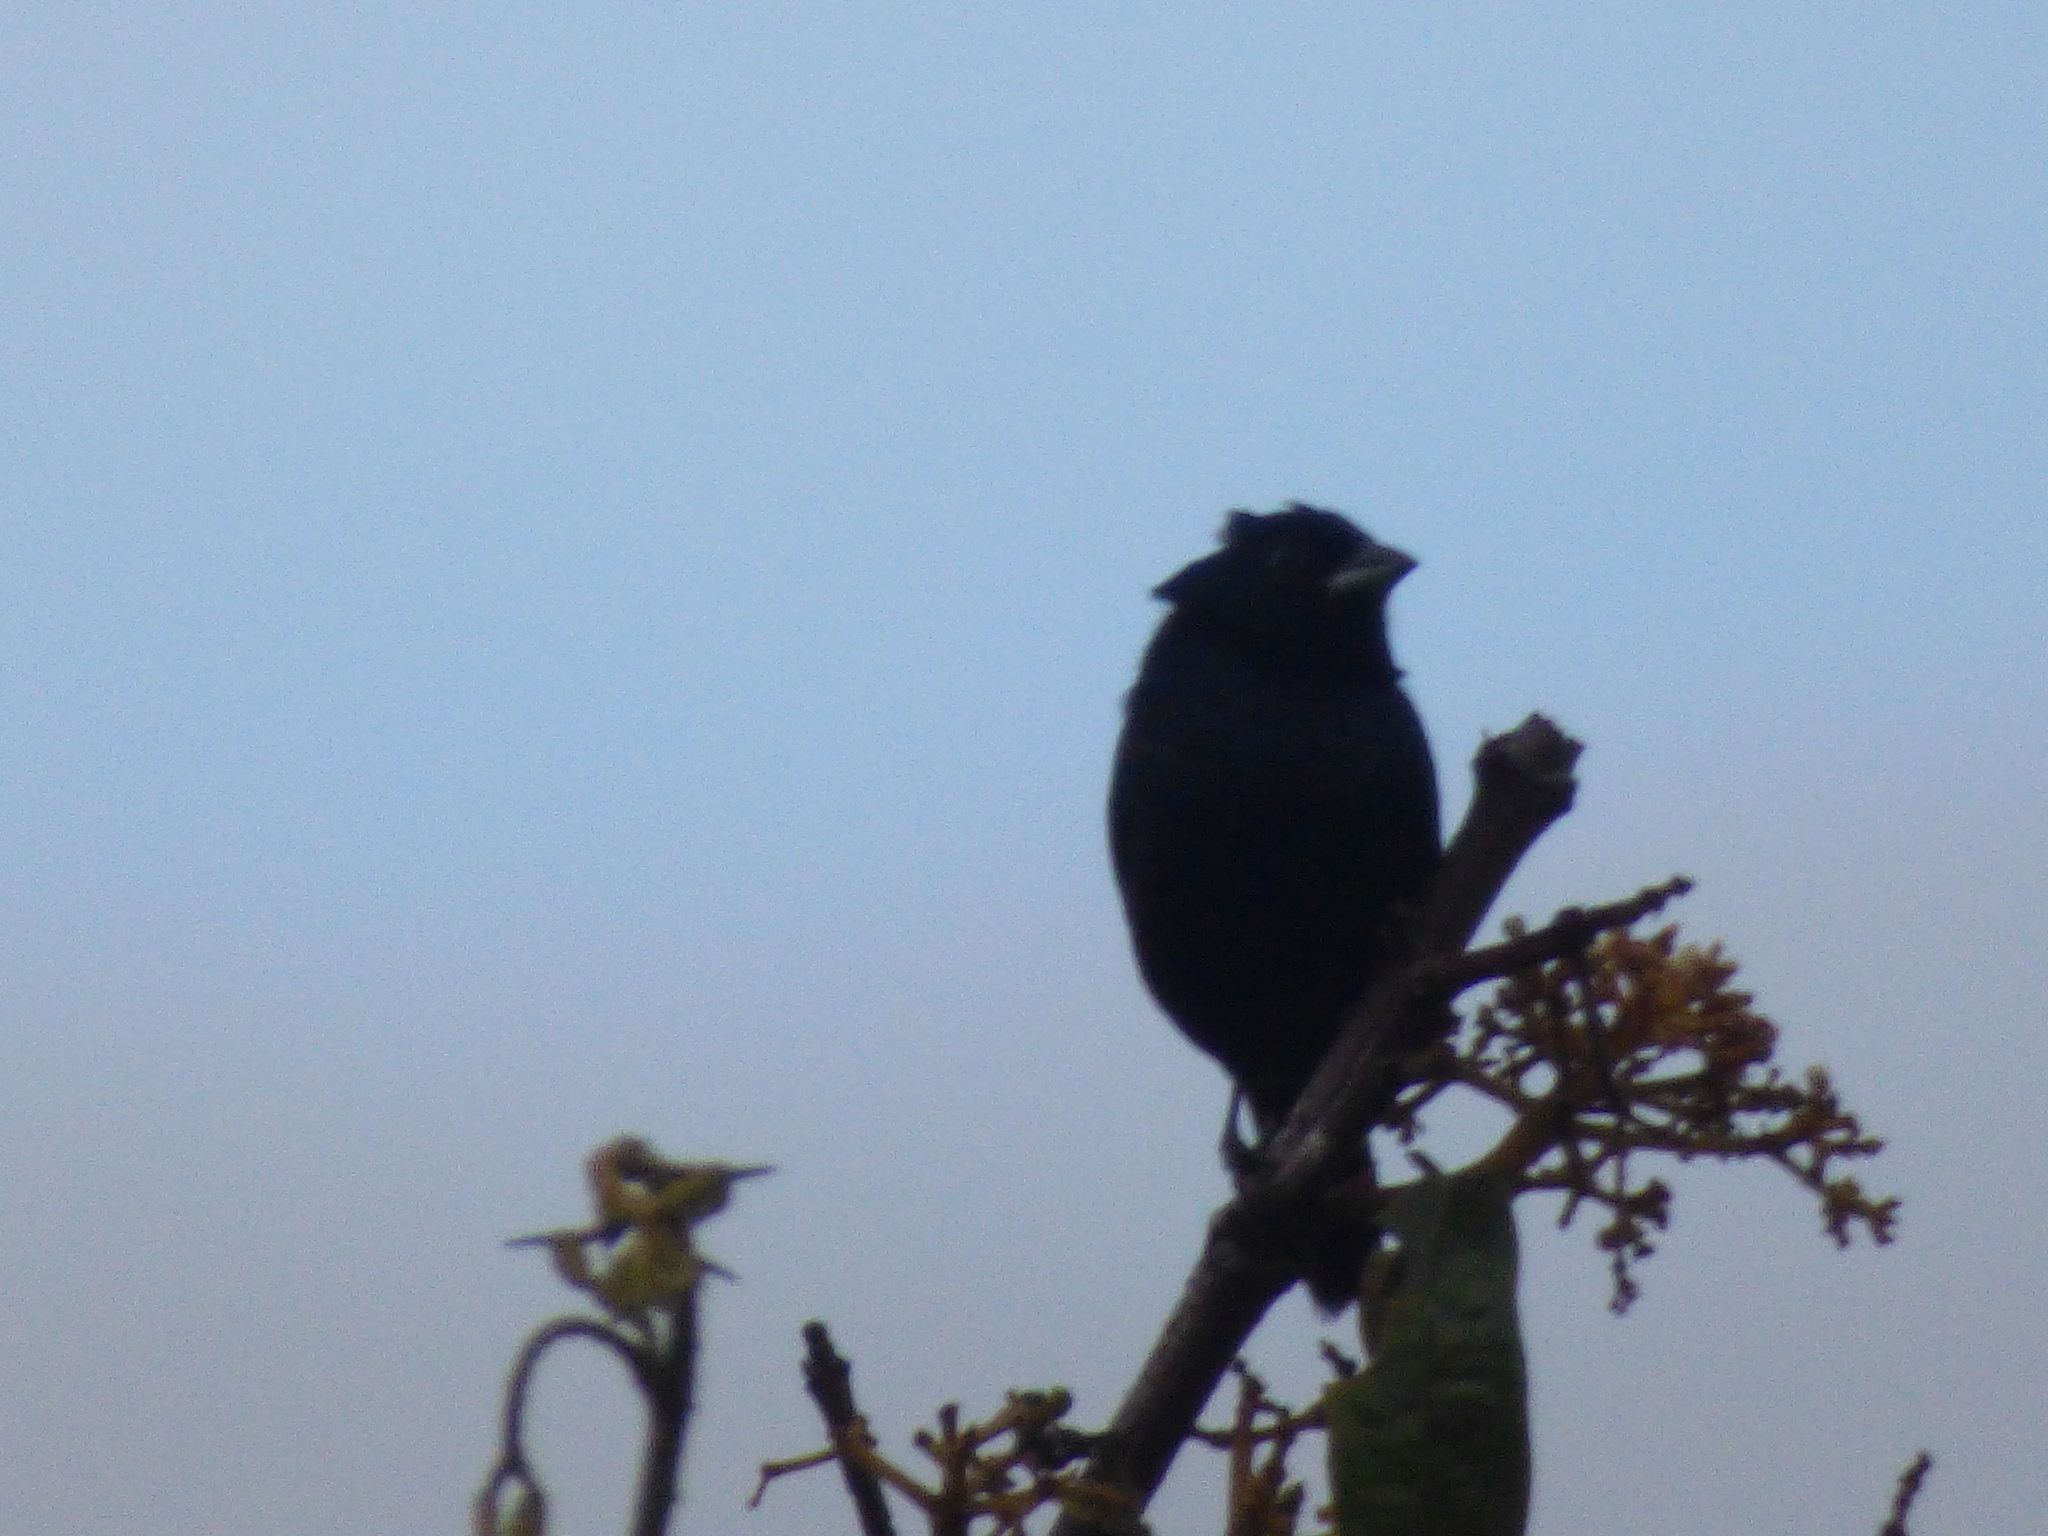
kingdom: Animalia
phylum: Chordata
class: Aves
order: Passeriformes
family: Thraupidae
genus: Volatinia
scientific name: Volatinia jacarina
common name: Blue-black grassquit
